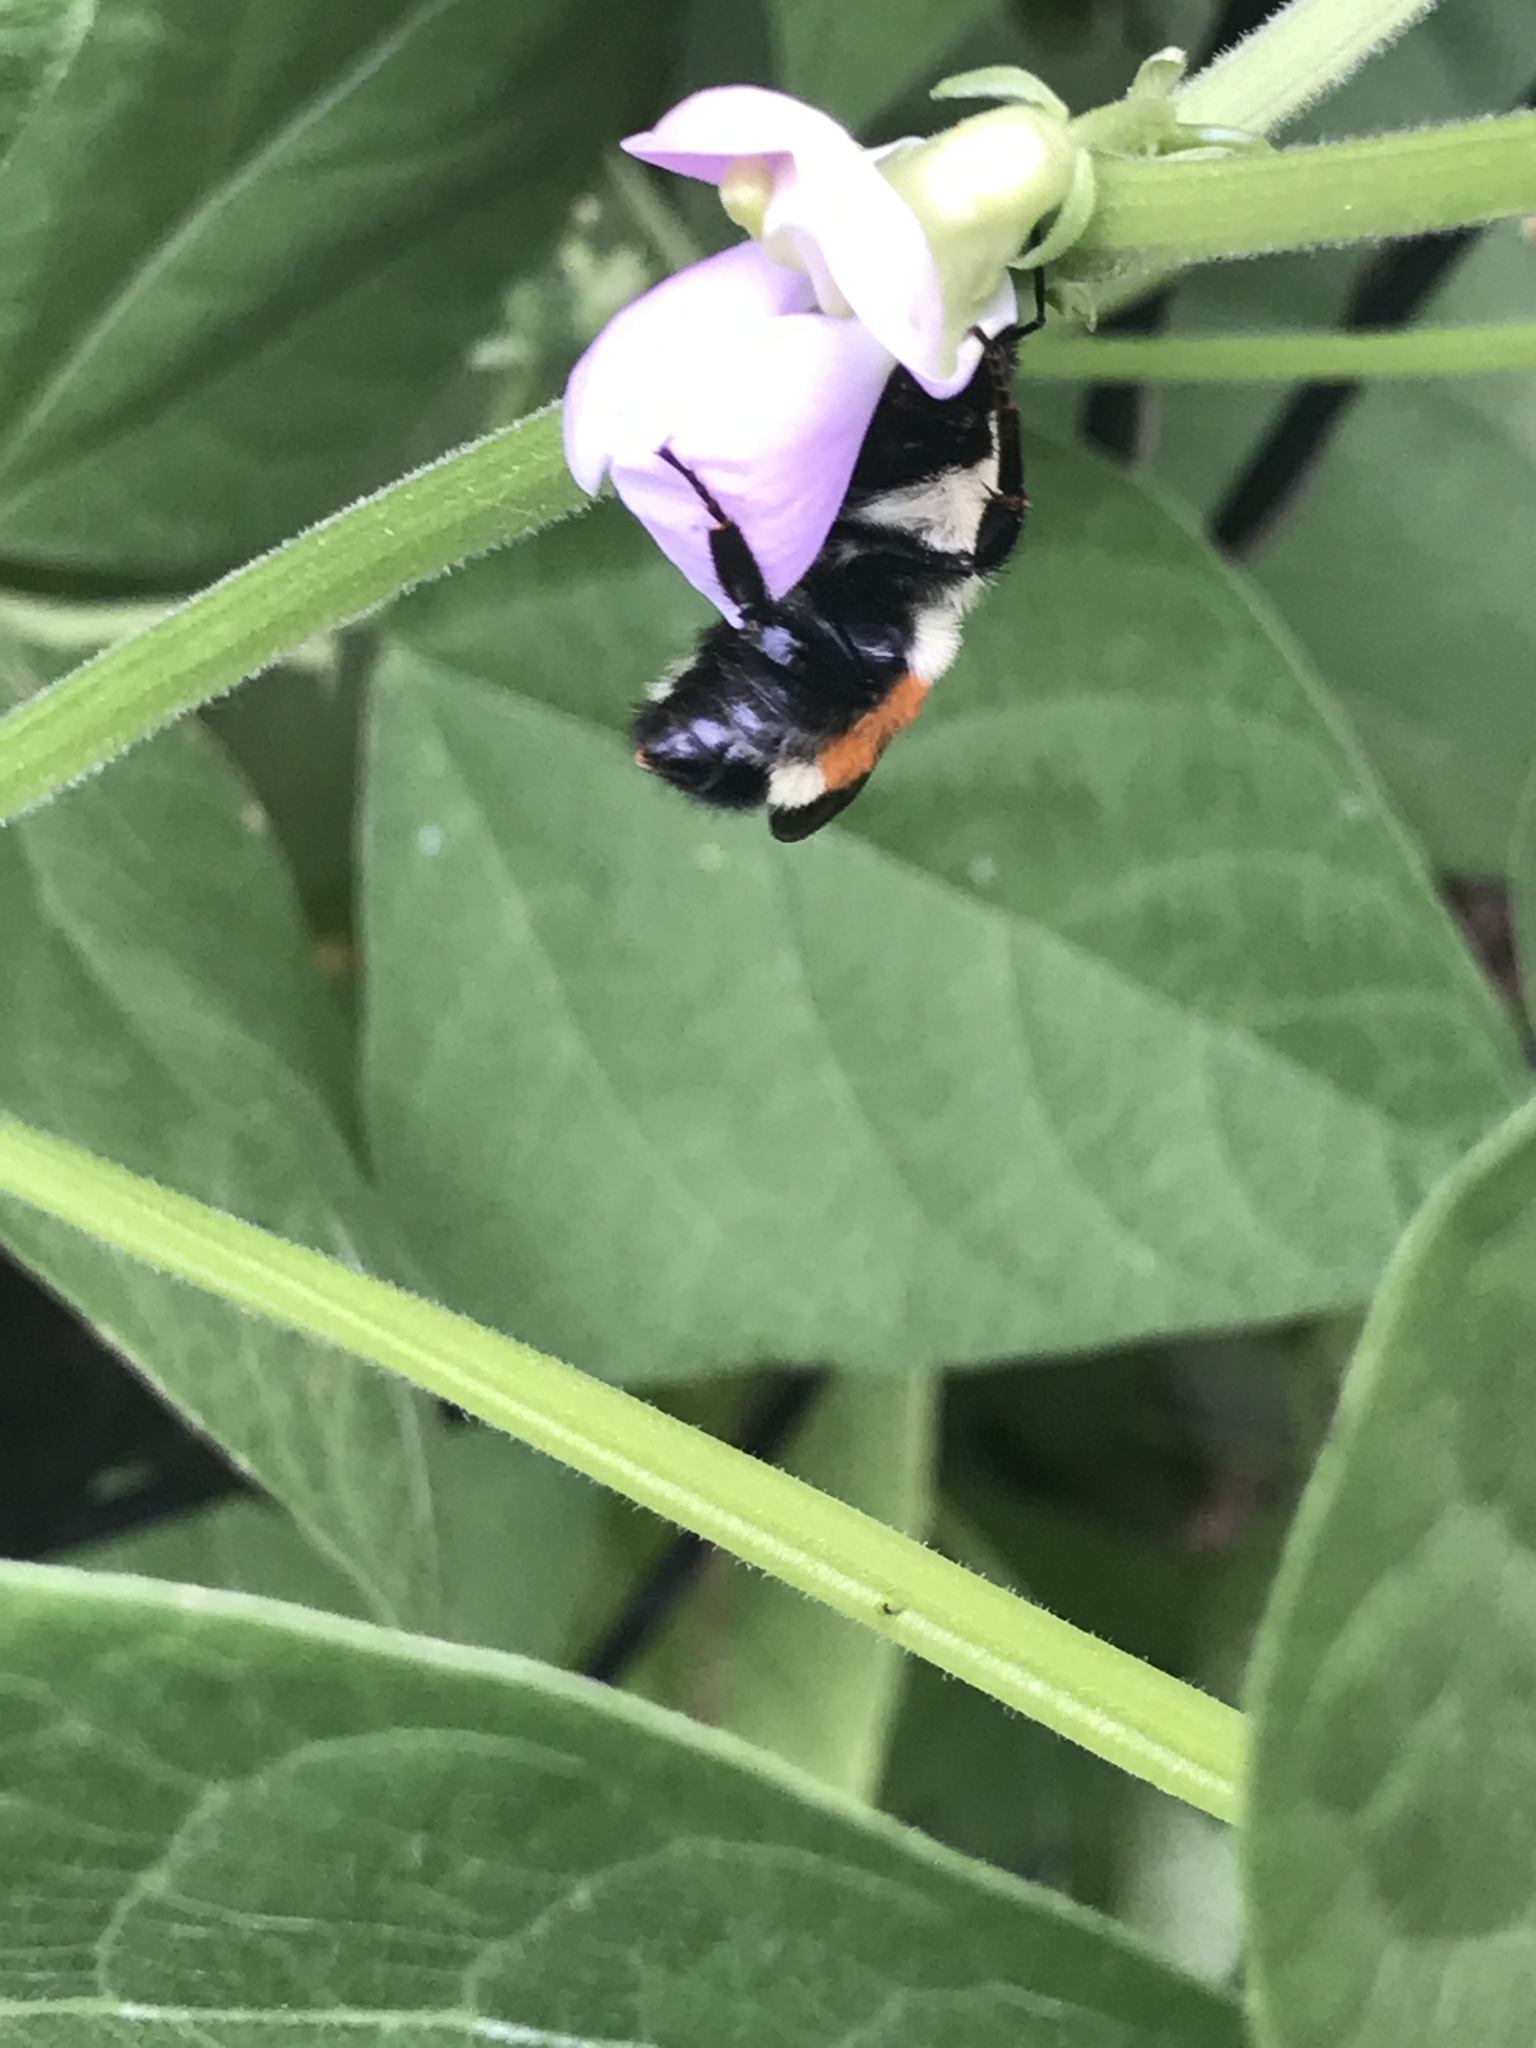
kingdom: Animalia
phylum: Arthropoda
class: Insecta
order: Hymenoptera
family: Apidae
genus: Bombus
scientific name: Bombus ternarius
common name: Tri-colored bumble bee
